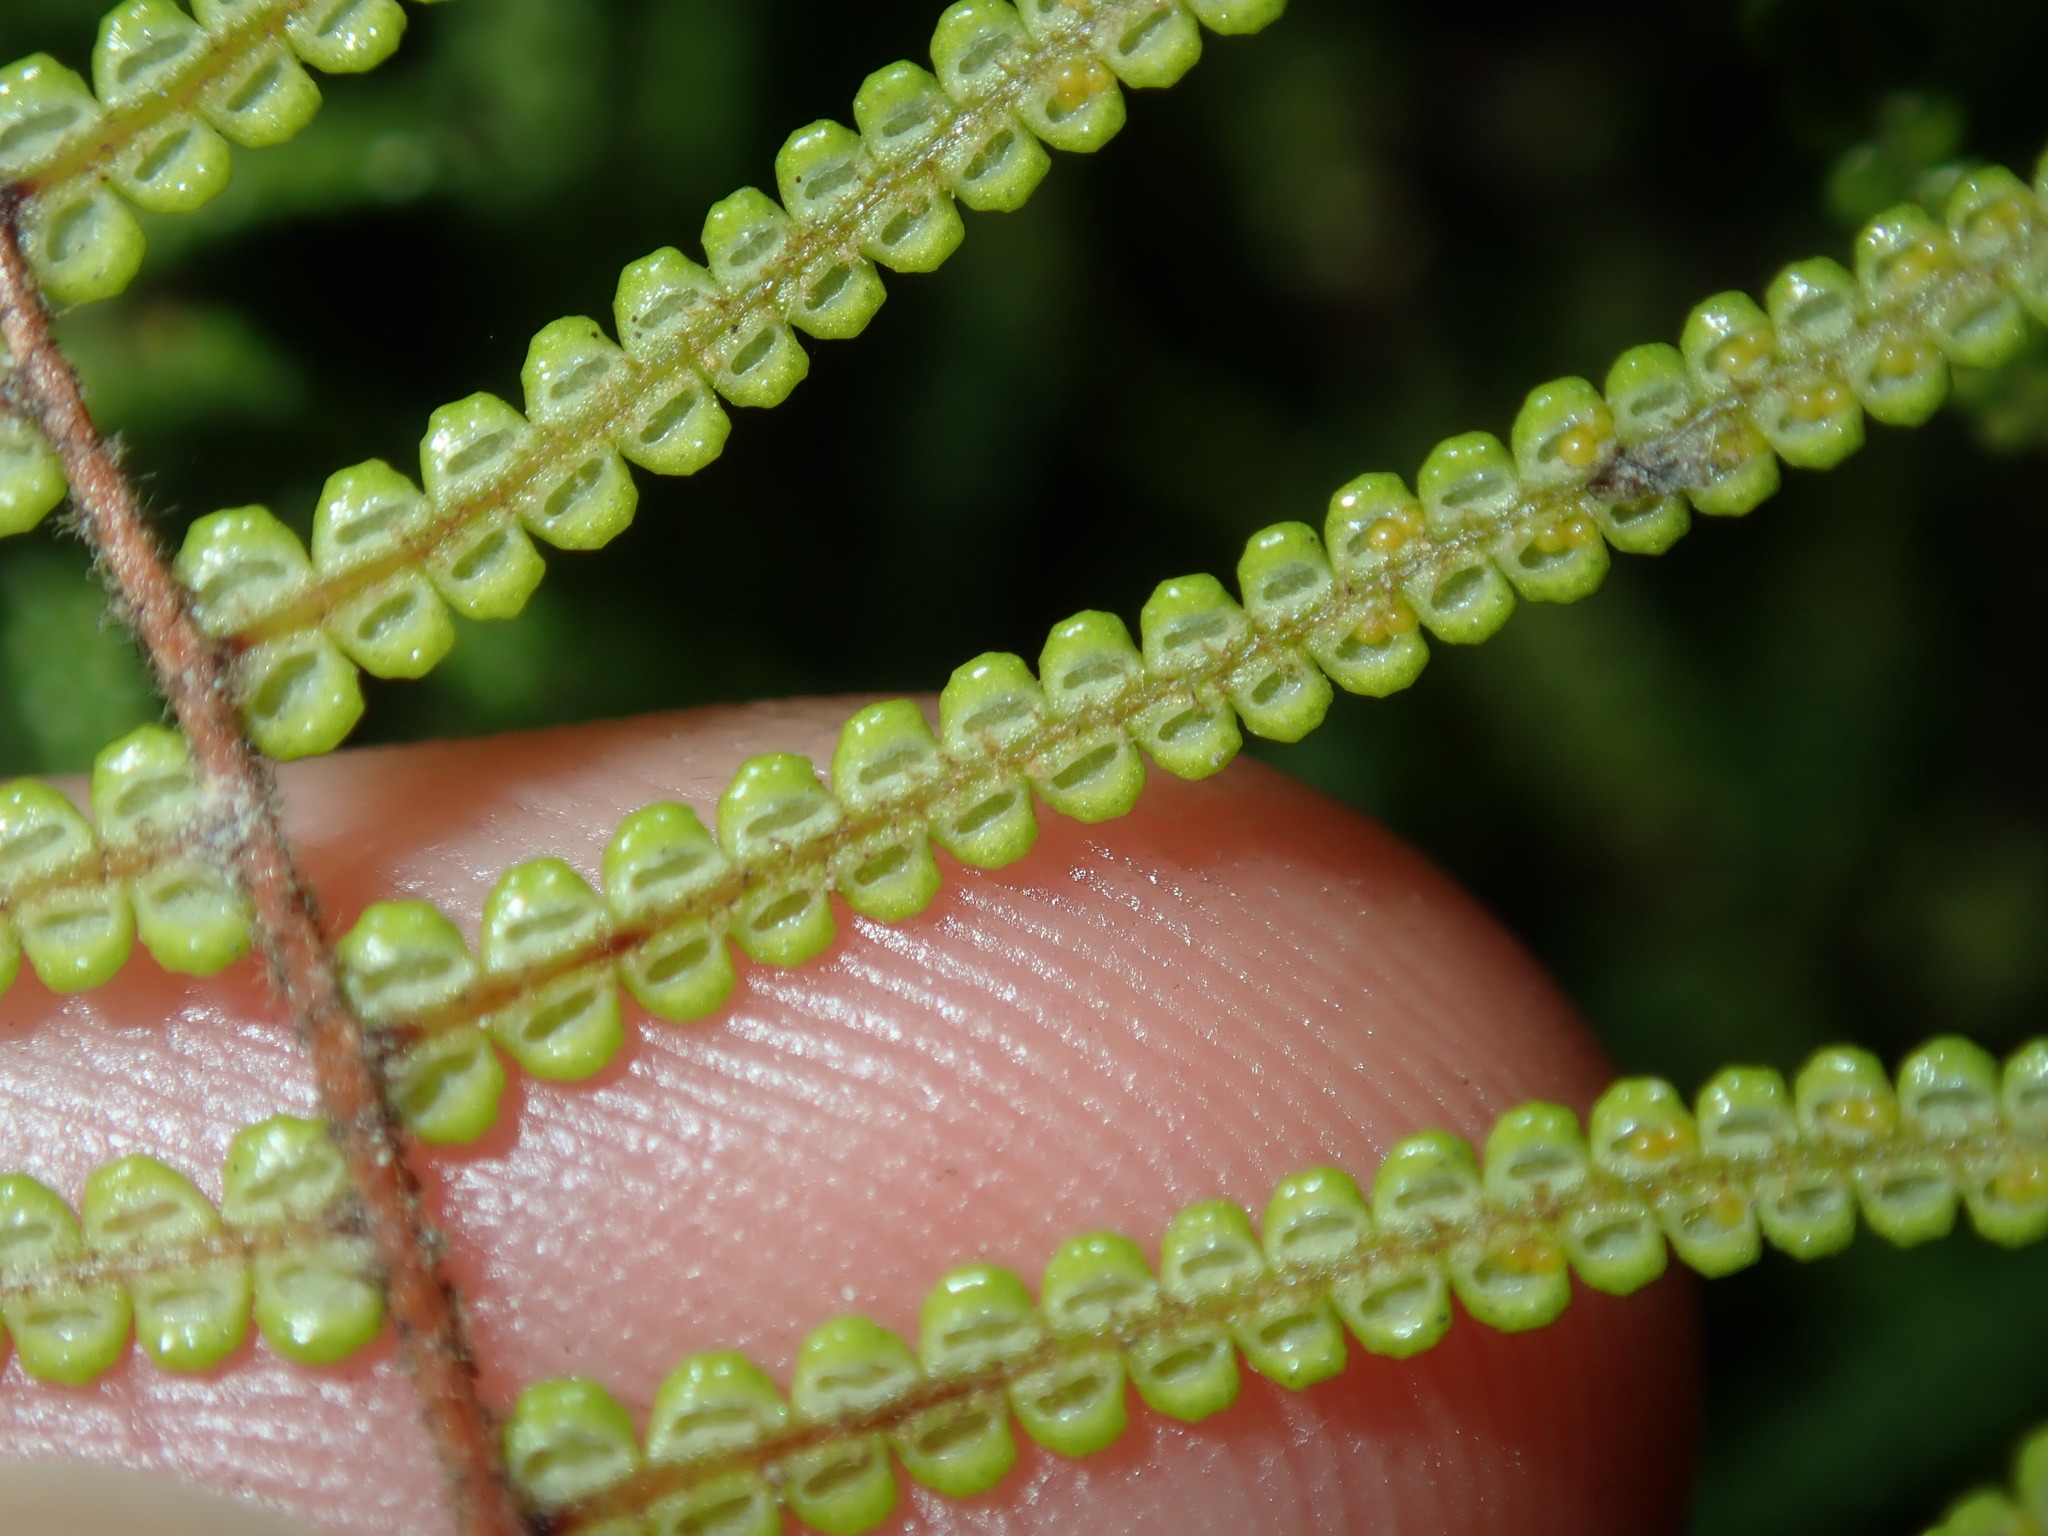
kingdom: Plantae
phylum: Tracheophyta
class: Polypodiopsida
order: Gleicheniales
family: Gleicheniaceae
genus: Gleichenia
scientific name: Gleichenia dicarpa
